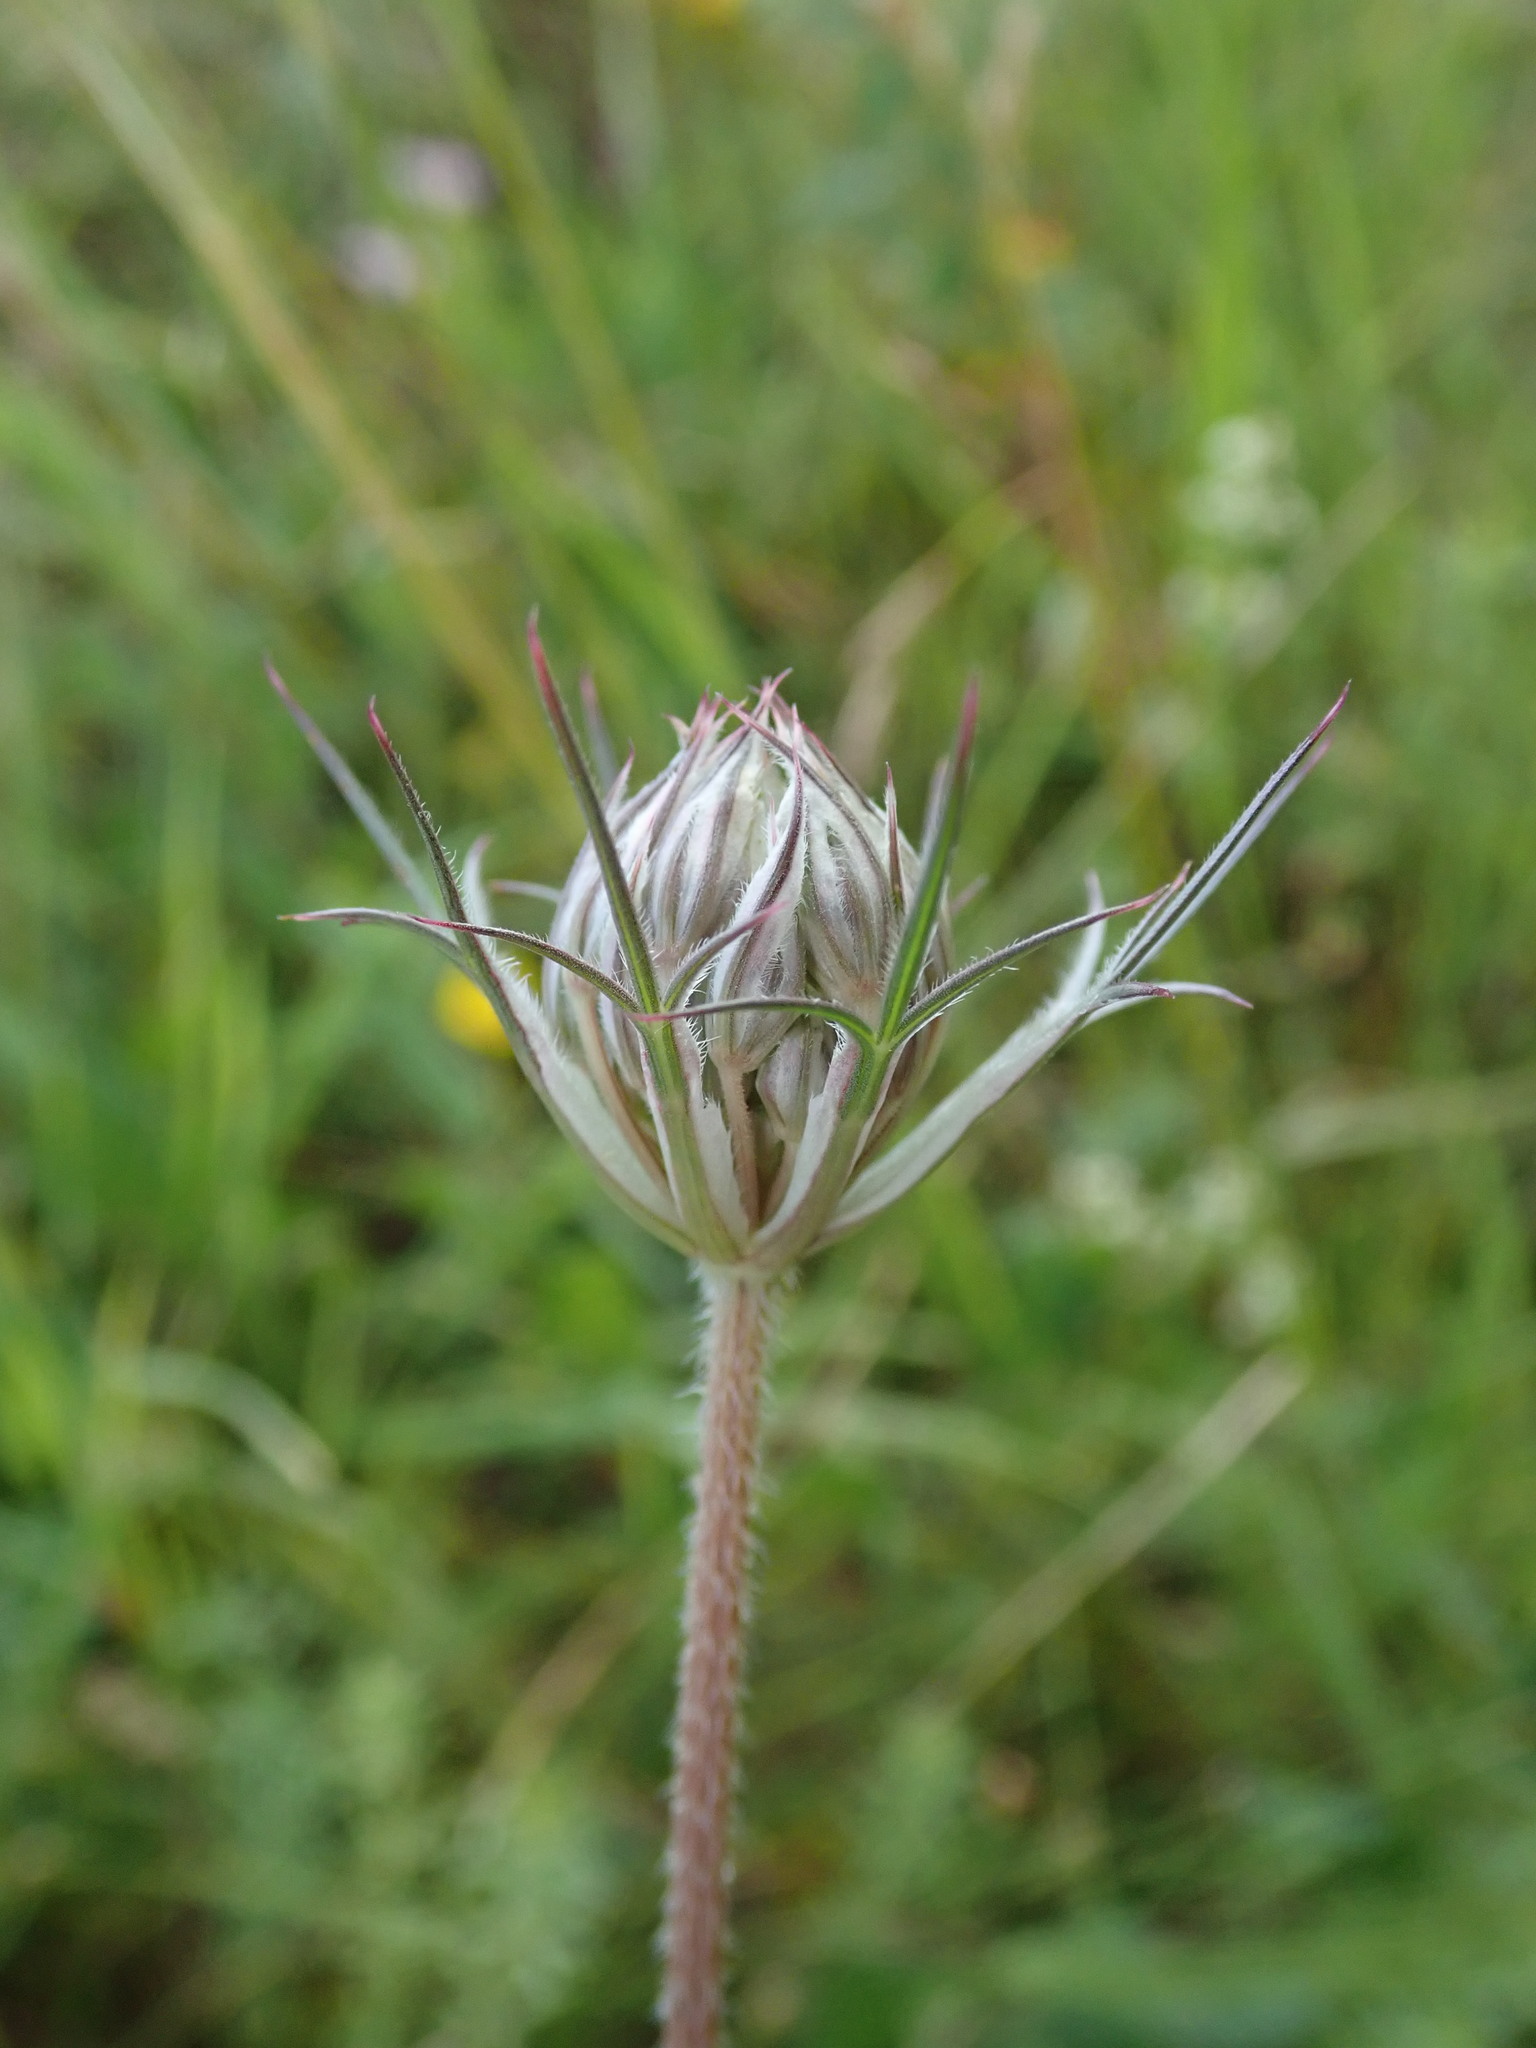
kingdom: Plantae
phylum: Tracheophyta
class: Magnoliopsida
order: Apiales
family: Apiaceae
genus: Daucus
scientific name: Daucus carota
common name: Wild carrot
